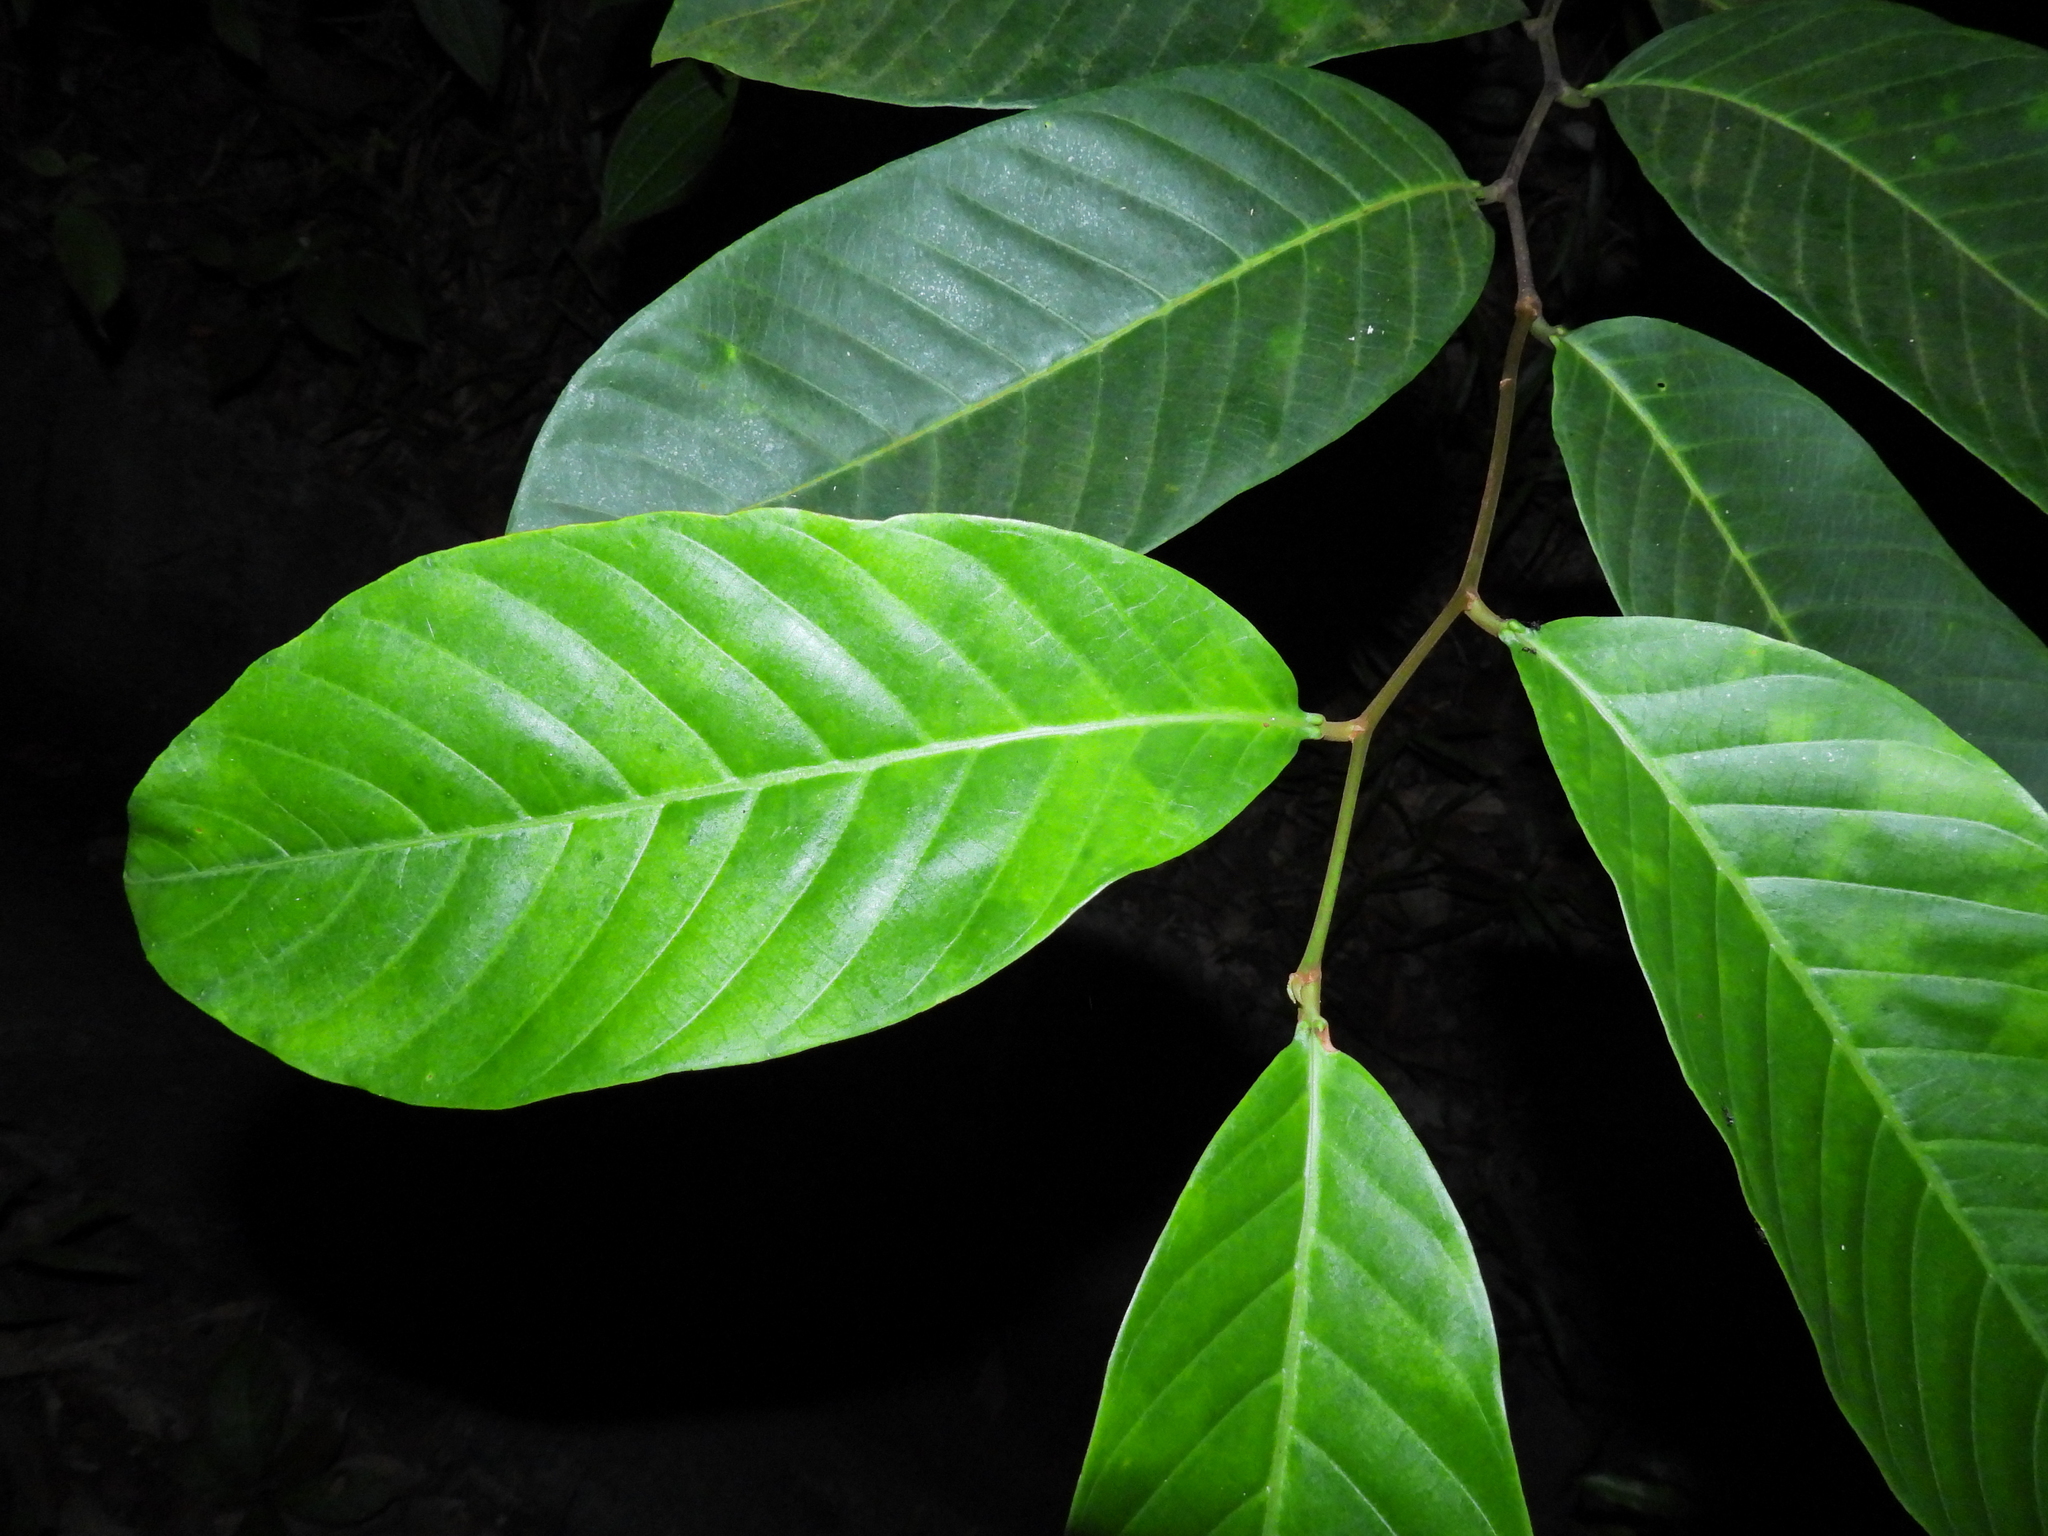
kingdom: Plantae
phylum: Tracheophyta
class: Magnoliopsida
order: Rosales
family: Rosaceae
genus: Prunus
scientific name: Prunus polystachya
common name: Bat laurel
